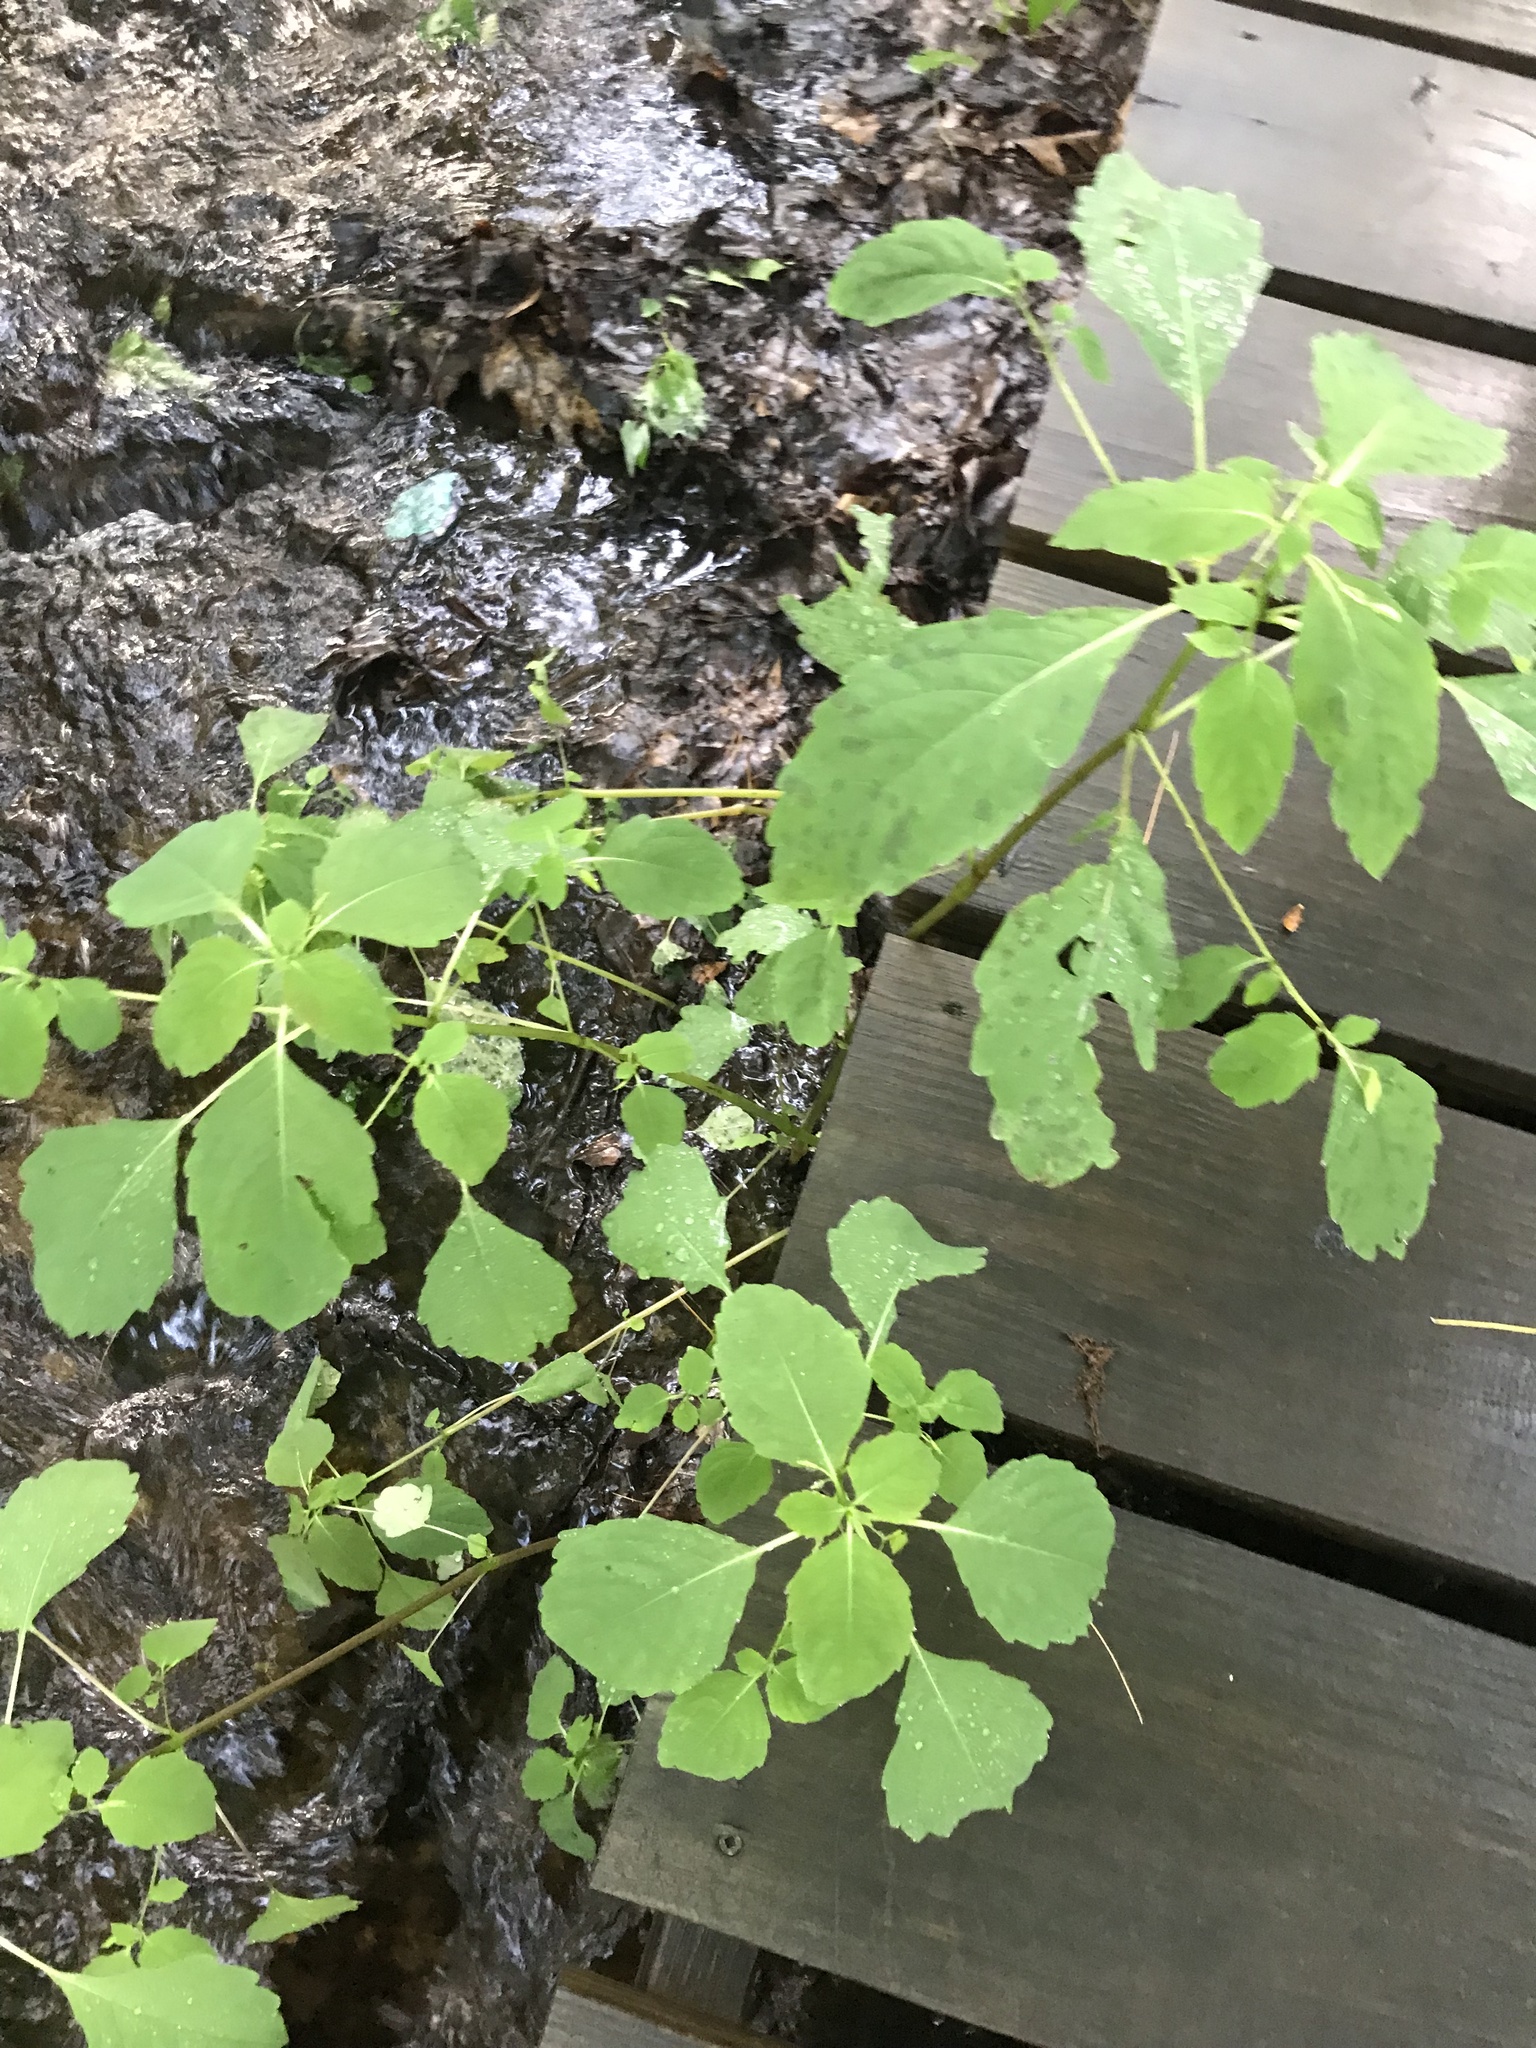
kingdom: Plantae
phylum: Tracheophyta
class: Magnoliopsida
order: Ericales
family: Balsaminaceae
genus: Impatiens
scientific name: Impatiens
